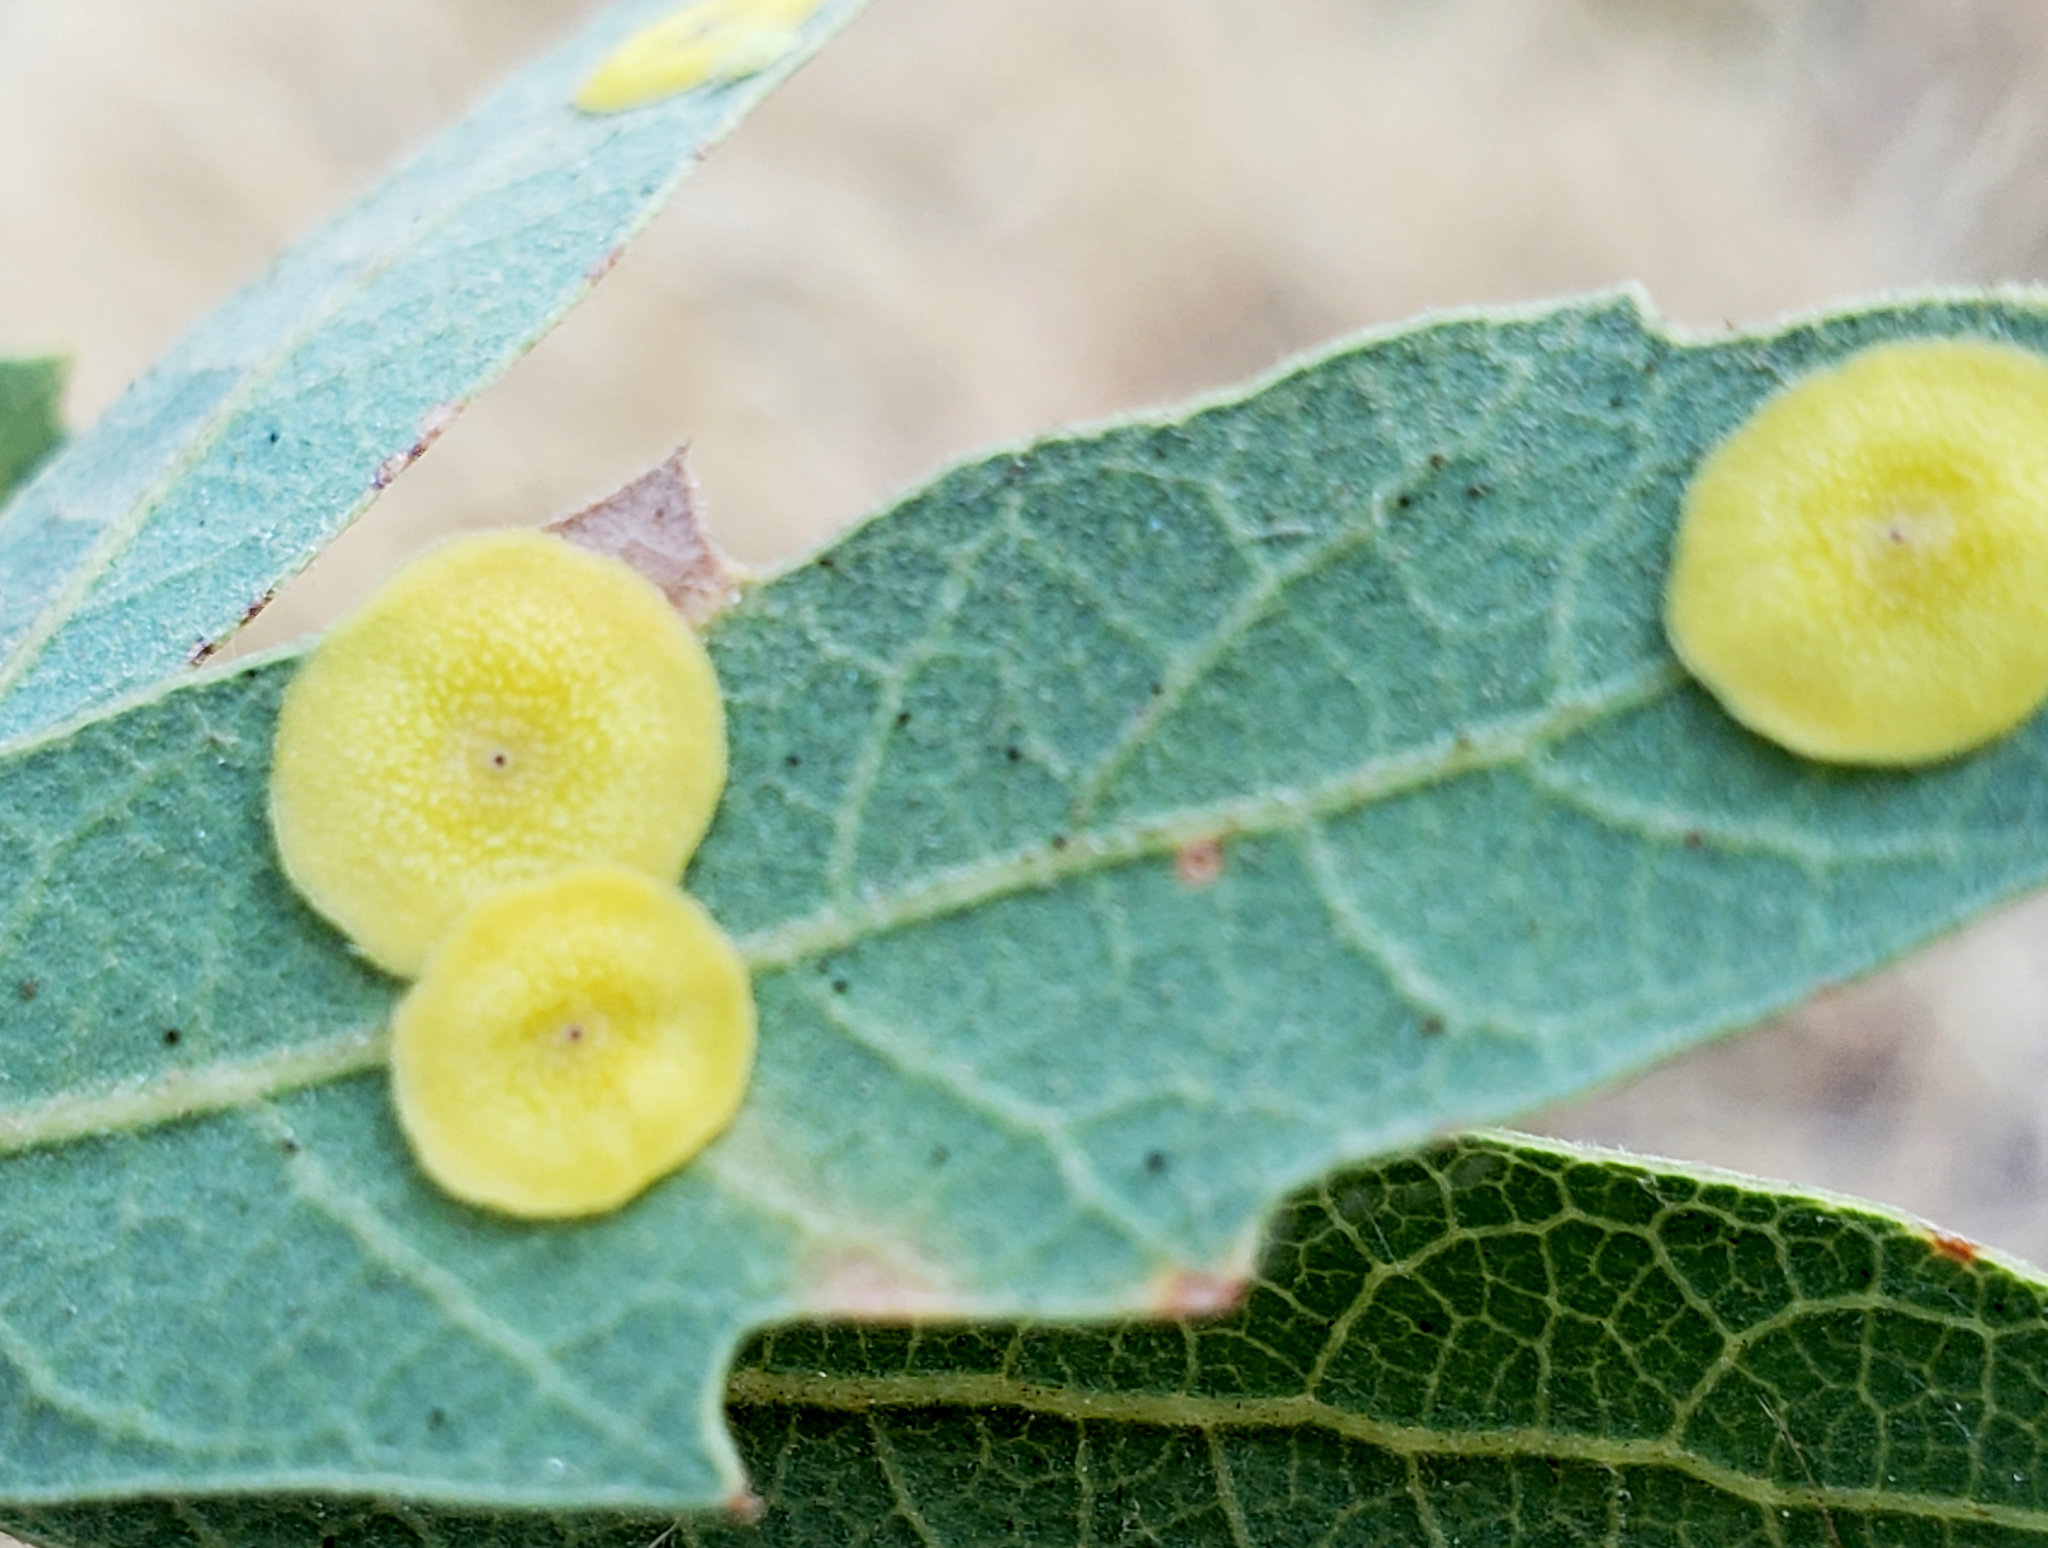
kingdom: Animalia
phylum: Arthropoda
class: Insecta
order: Hymenoptera
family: Cynipidae
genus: Andricus
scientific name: Andricus
